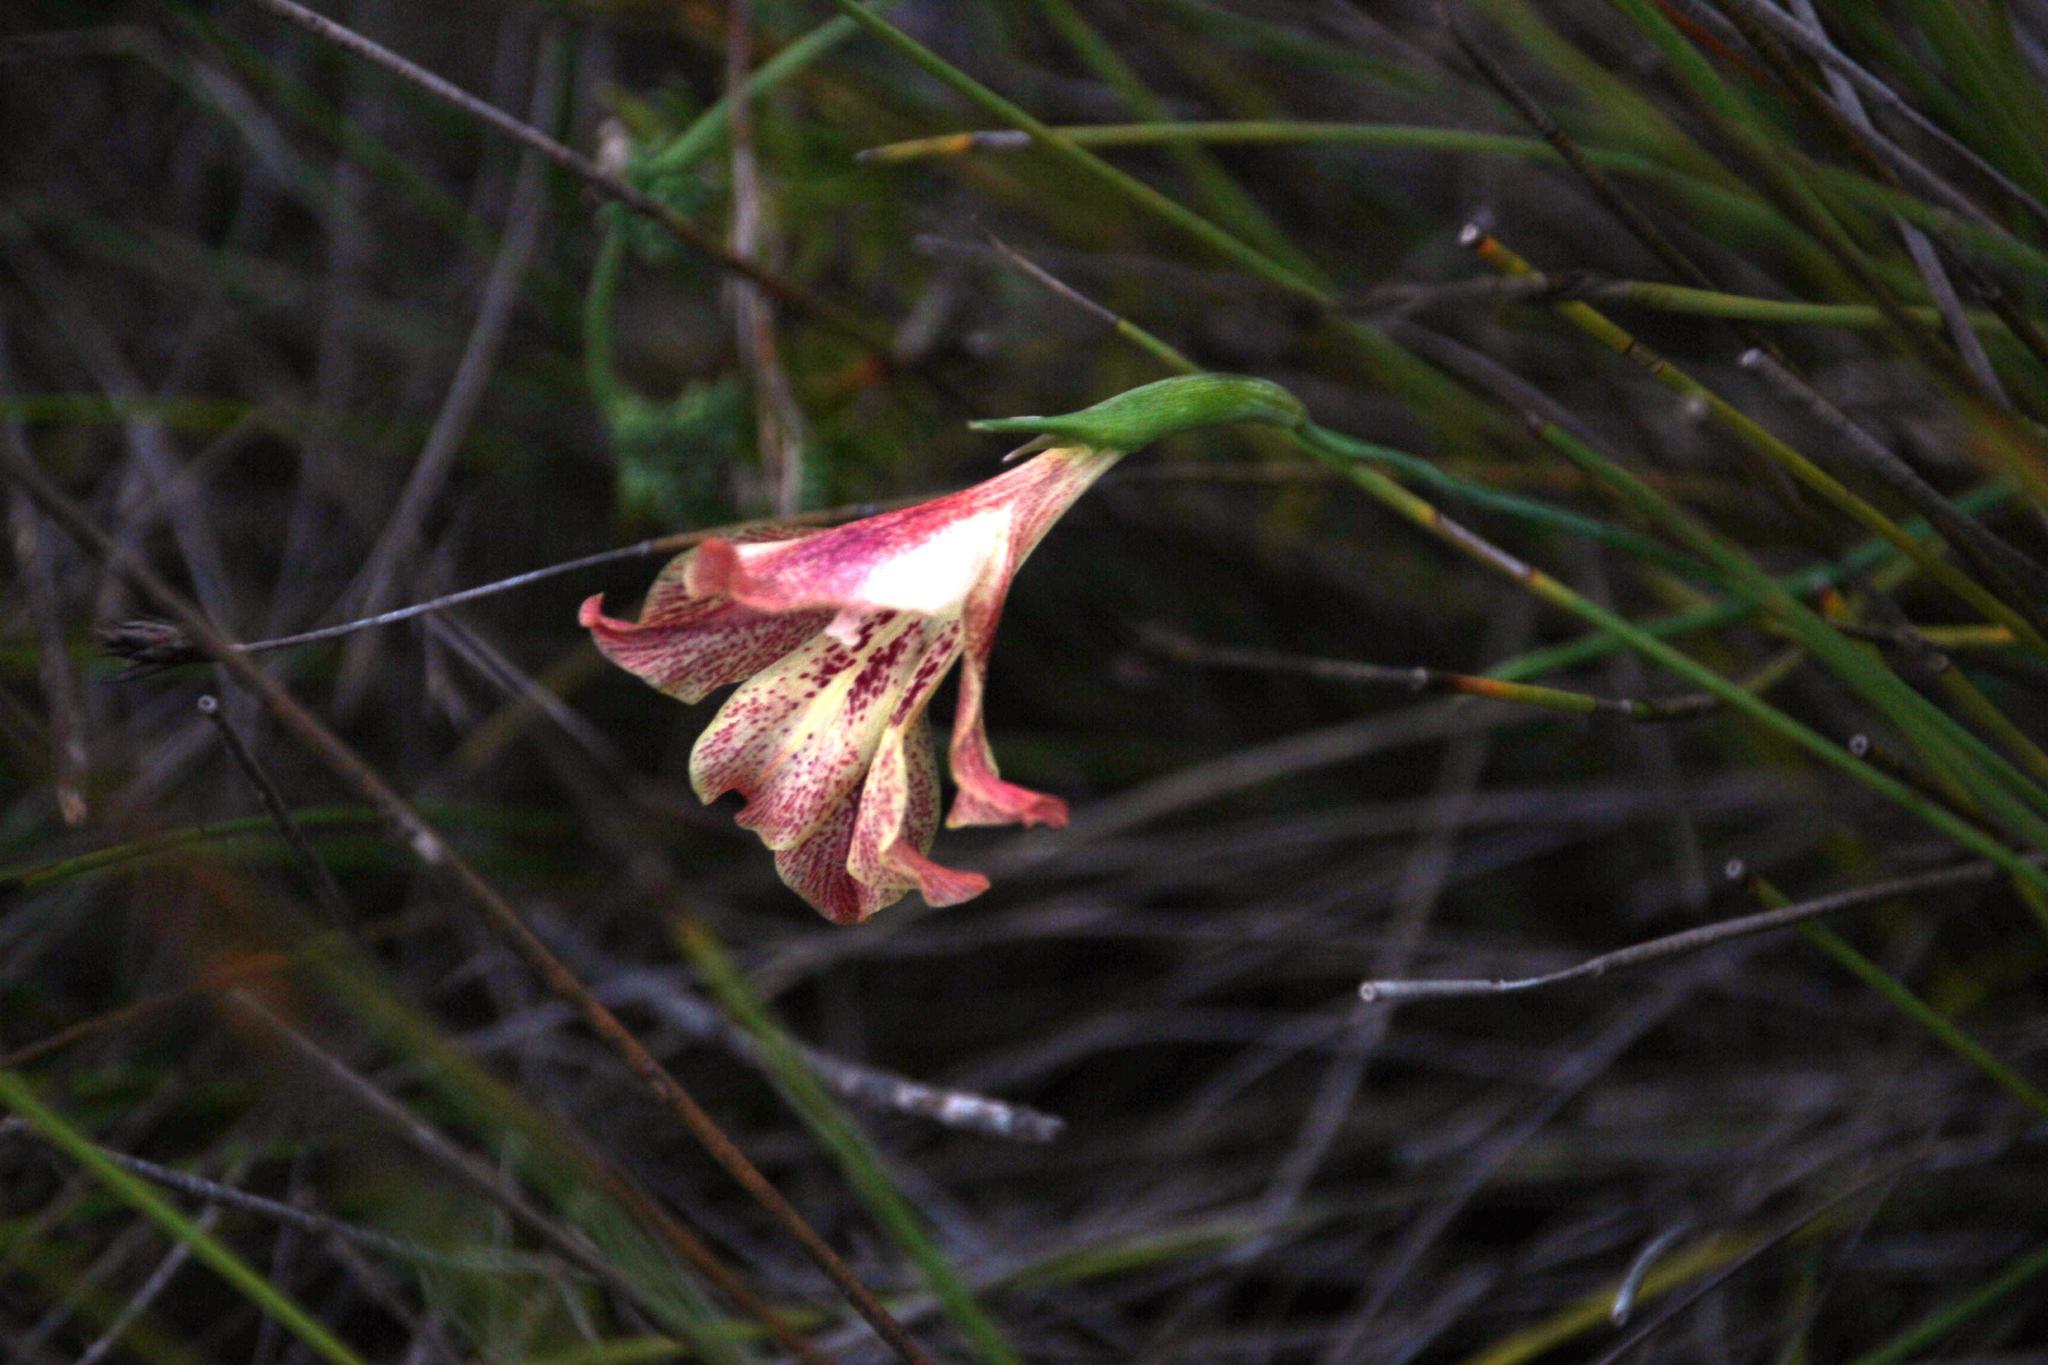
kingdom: Plantae
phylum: Tracheophyta
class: Liliopsida
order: Asparagales
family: Iridaceae
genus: Gladiolus
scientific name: Gladiolus maculatus
